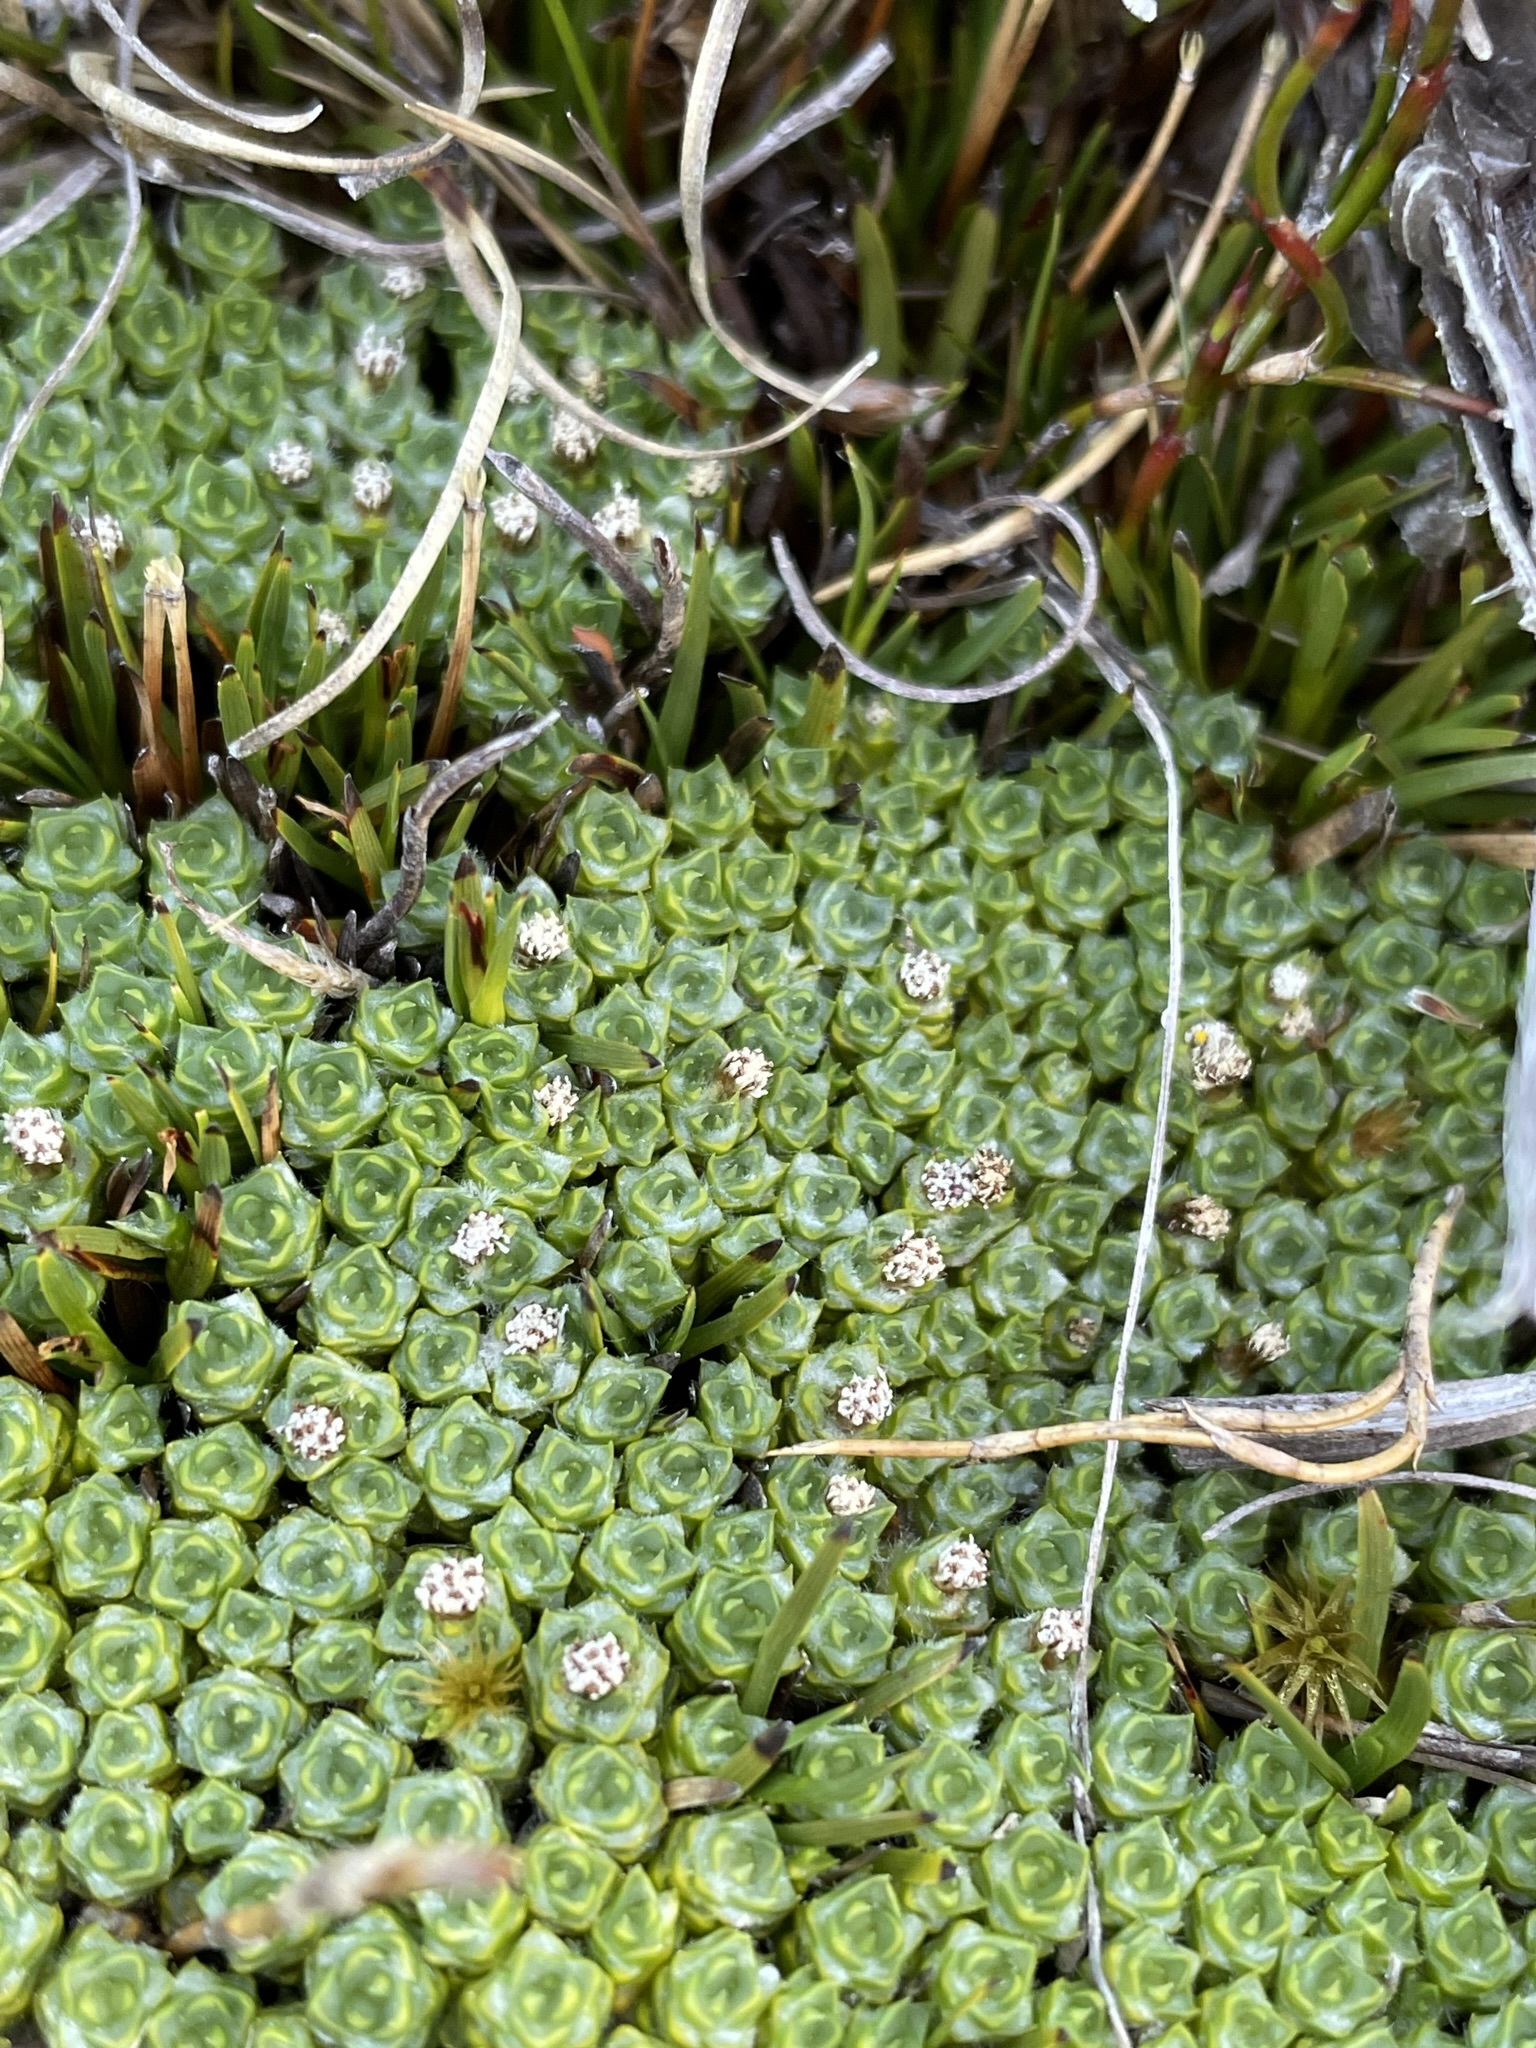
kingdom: Plantae
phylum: Tracheophyta
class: Magnoliopsida
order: Asterales
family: Asteraceae
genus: Pterygopappus
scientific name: Pterygopappus lawrencii
